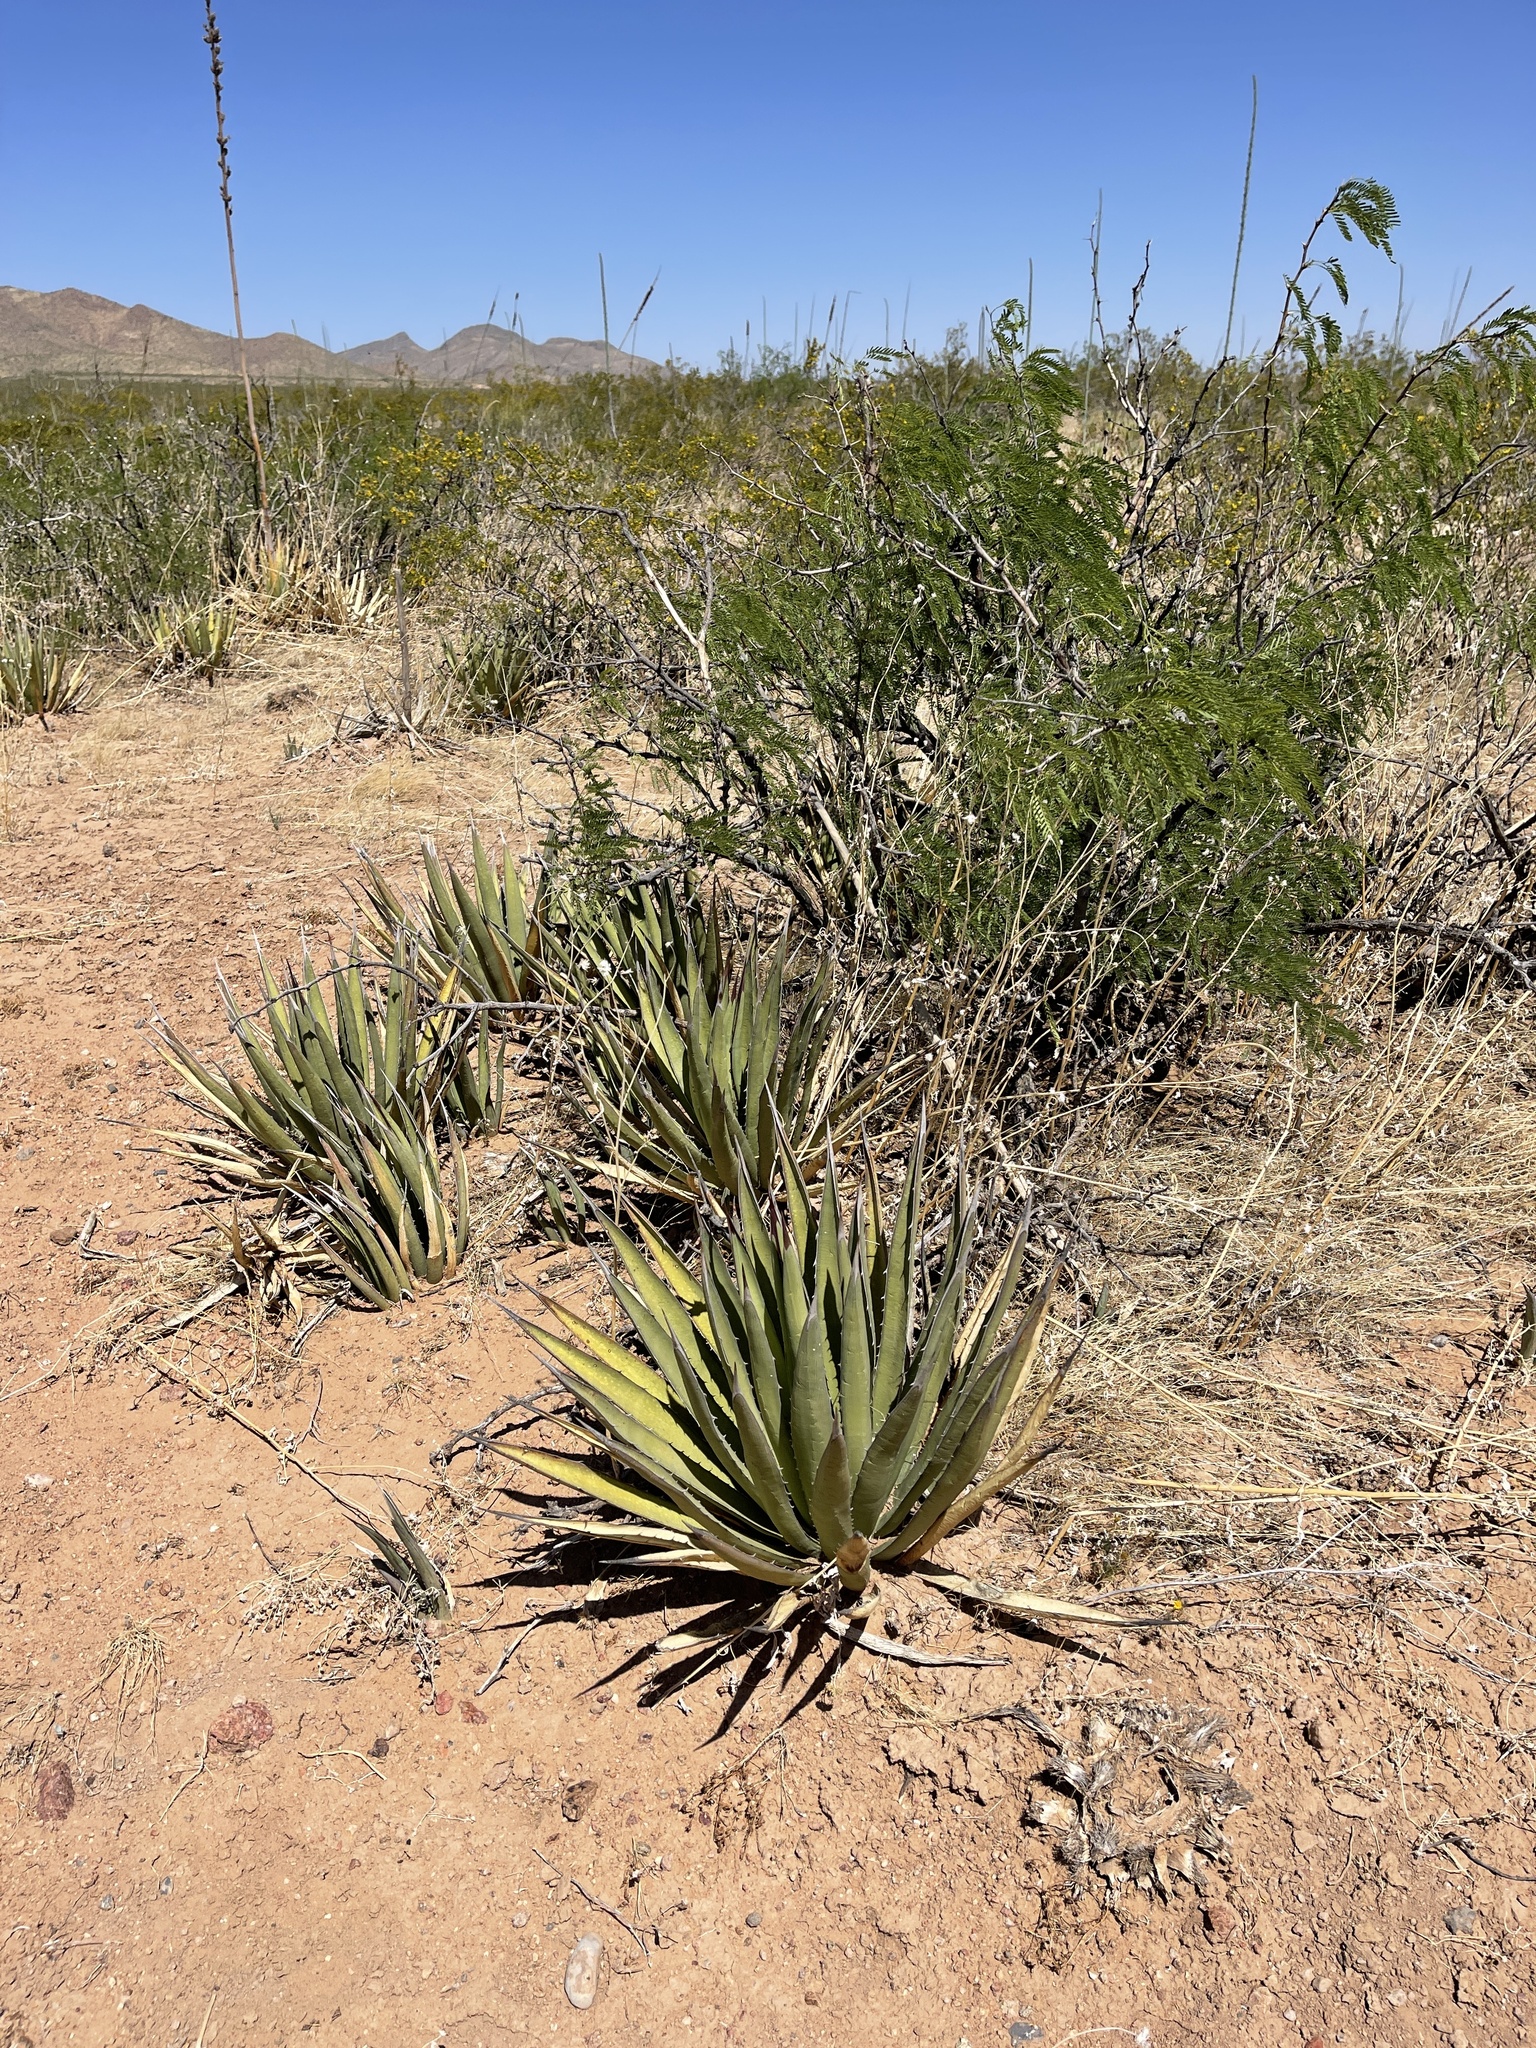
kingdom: Plantae
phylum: Tracheophyta
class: Liliopsida
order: Asparagales
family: Asparagaceae
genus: Agave
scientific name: Agave lechuguilla
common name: Lecheguilla agave
